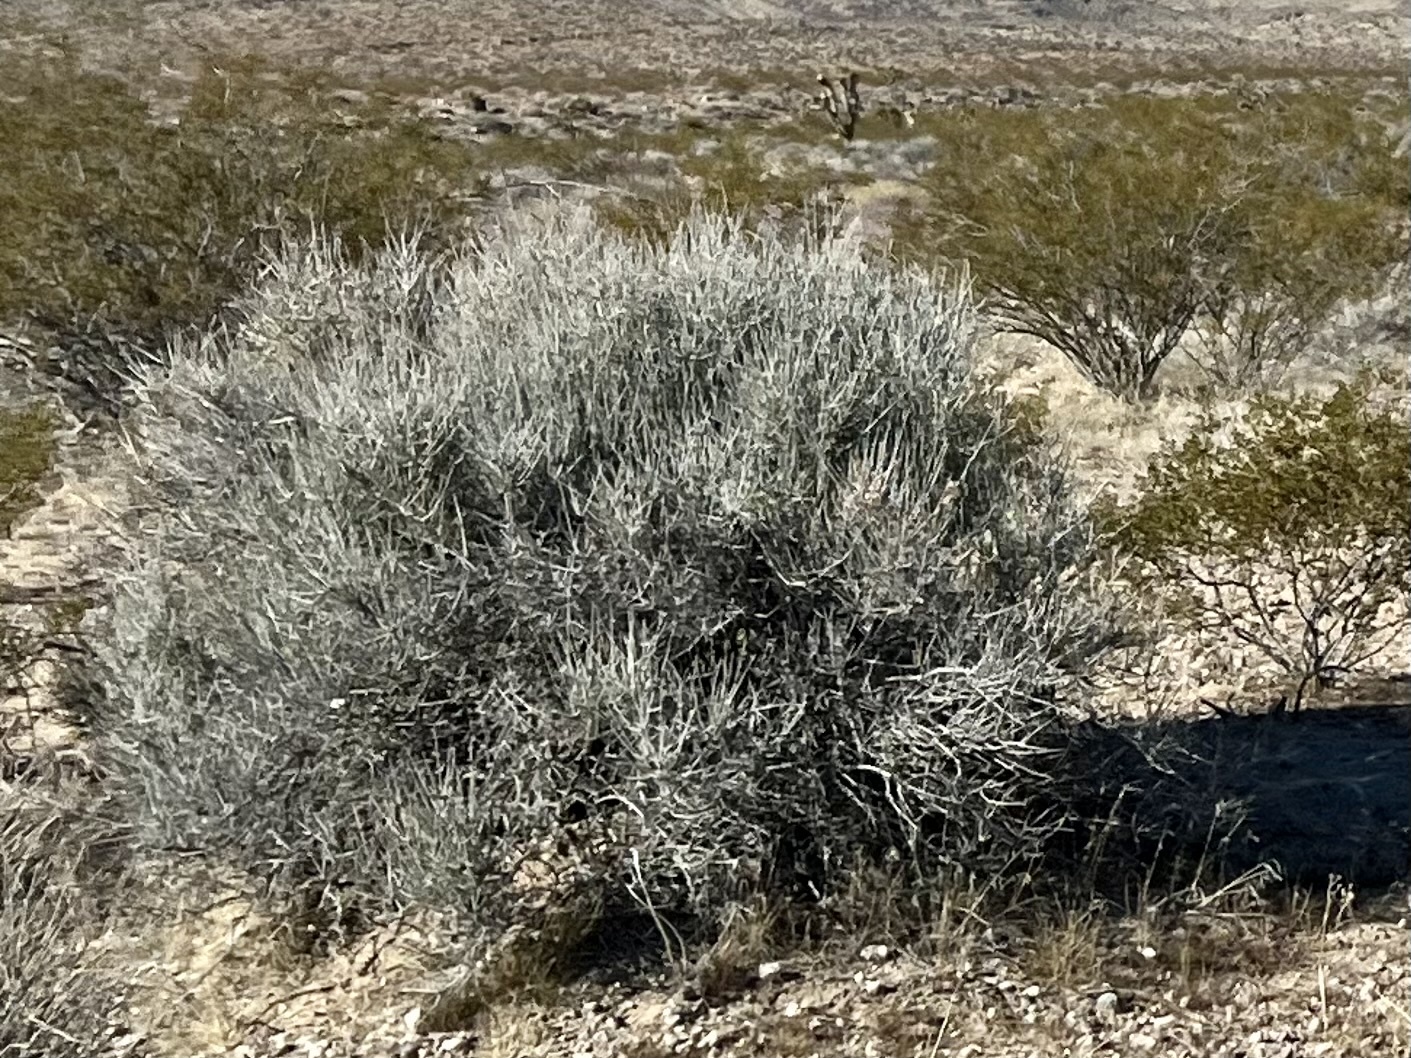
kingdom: Plantae
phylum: Tracheophyta
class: Gnetopsida
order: Ephedrales
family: Ephedraceae
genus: Ephedra
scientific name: Ephedra nevadensis
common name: Gray ephedra
